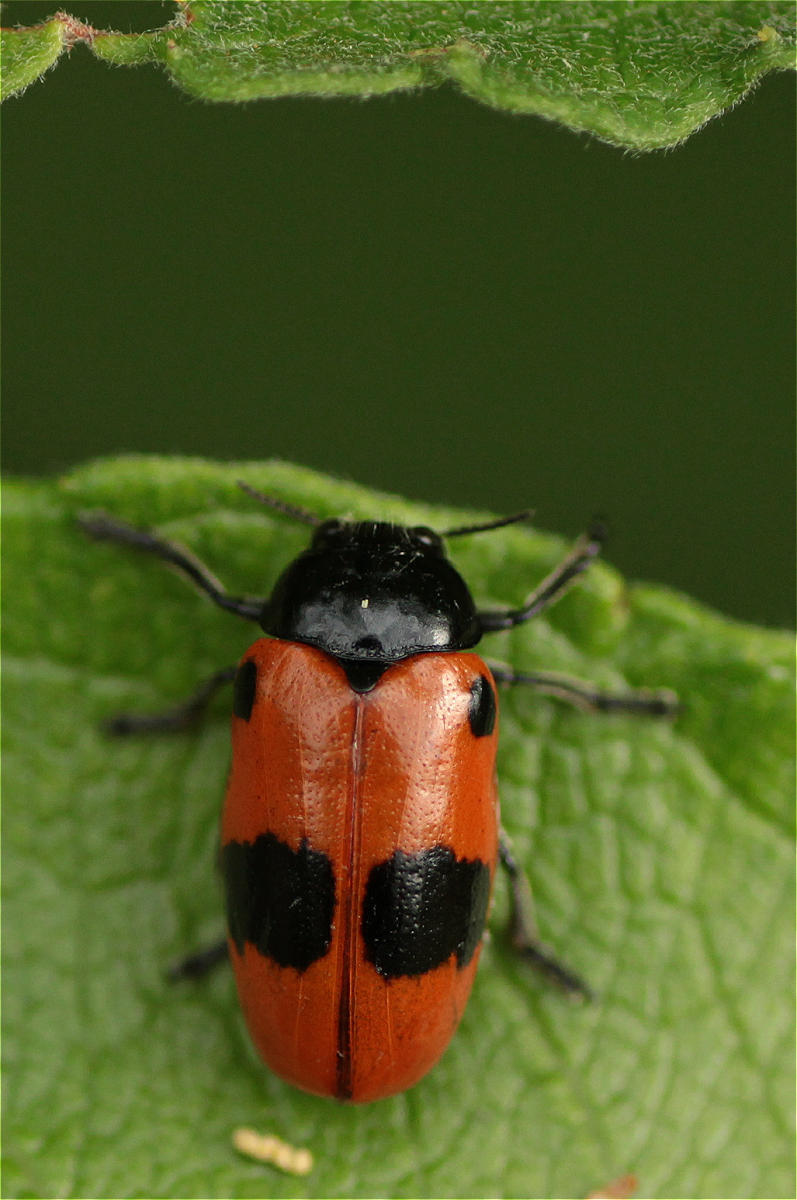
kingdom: Animalia
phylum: Arthropoda
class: Insecta
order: Coleoptera
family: Chrysomelidae
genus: Clytra
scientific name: Clytra laeviuscula
